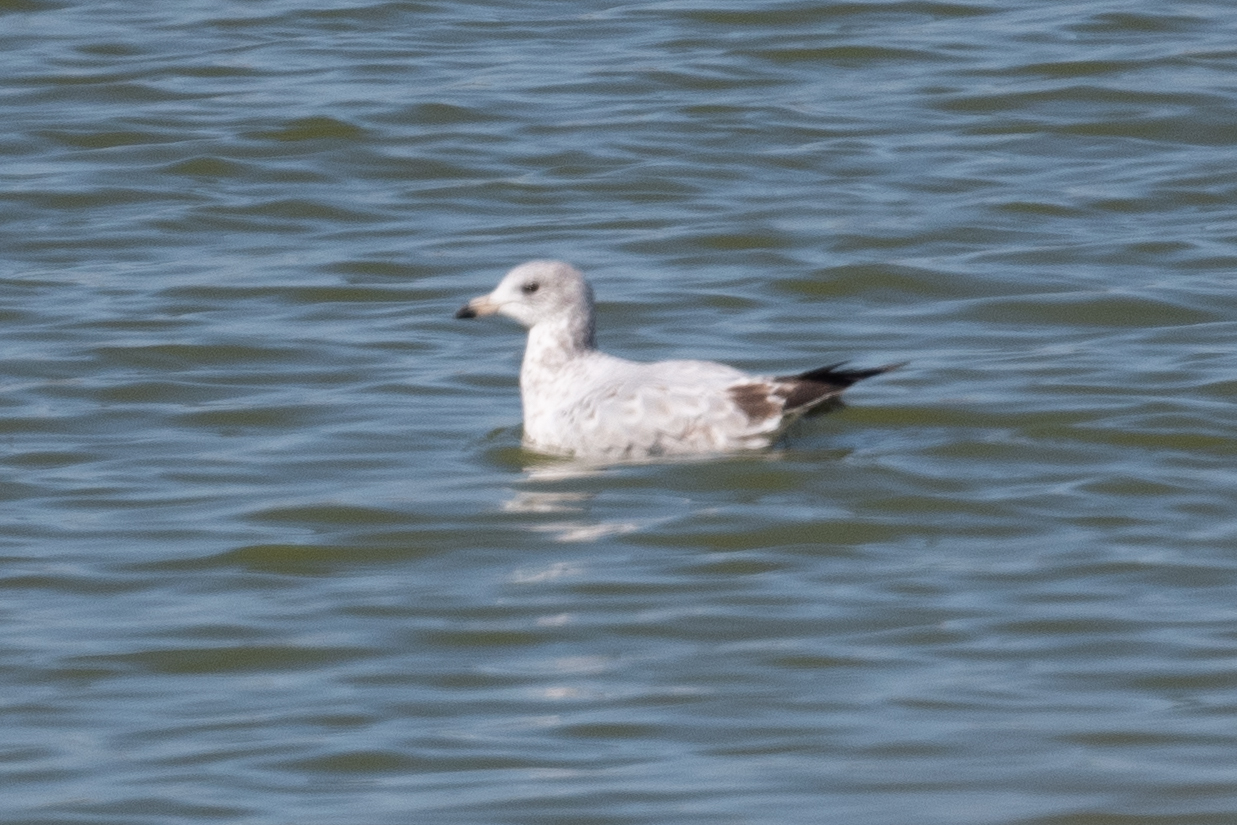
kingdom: Animalia
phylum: Chordata
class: Aves
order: Charadriiformes
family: Laridae
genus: Larus
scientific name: Larus delawarensis
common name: Ring-billed gull
